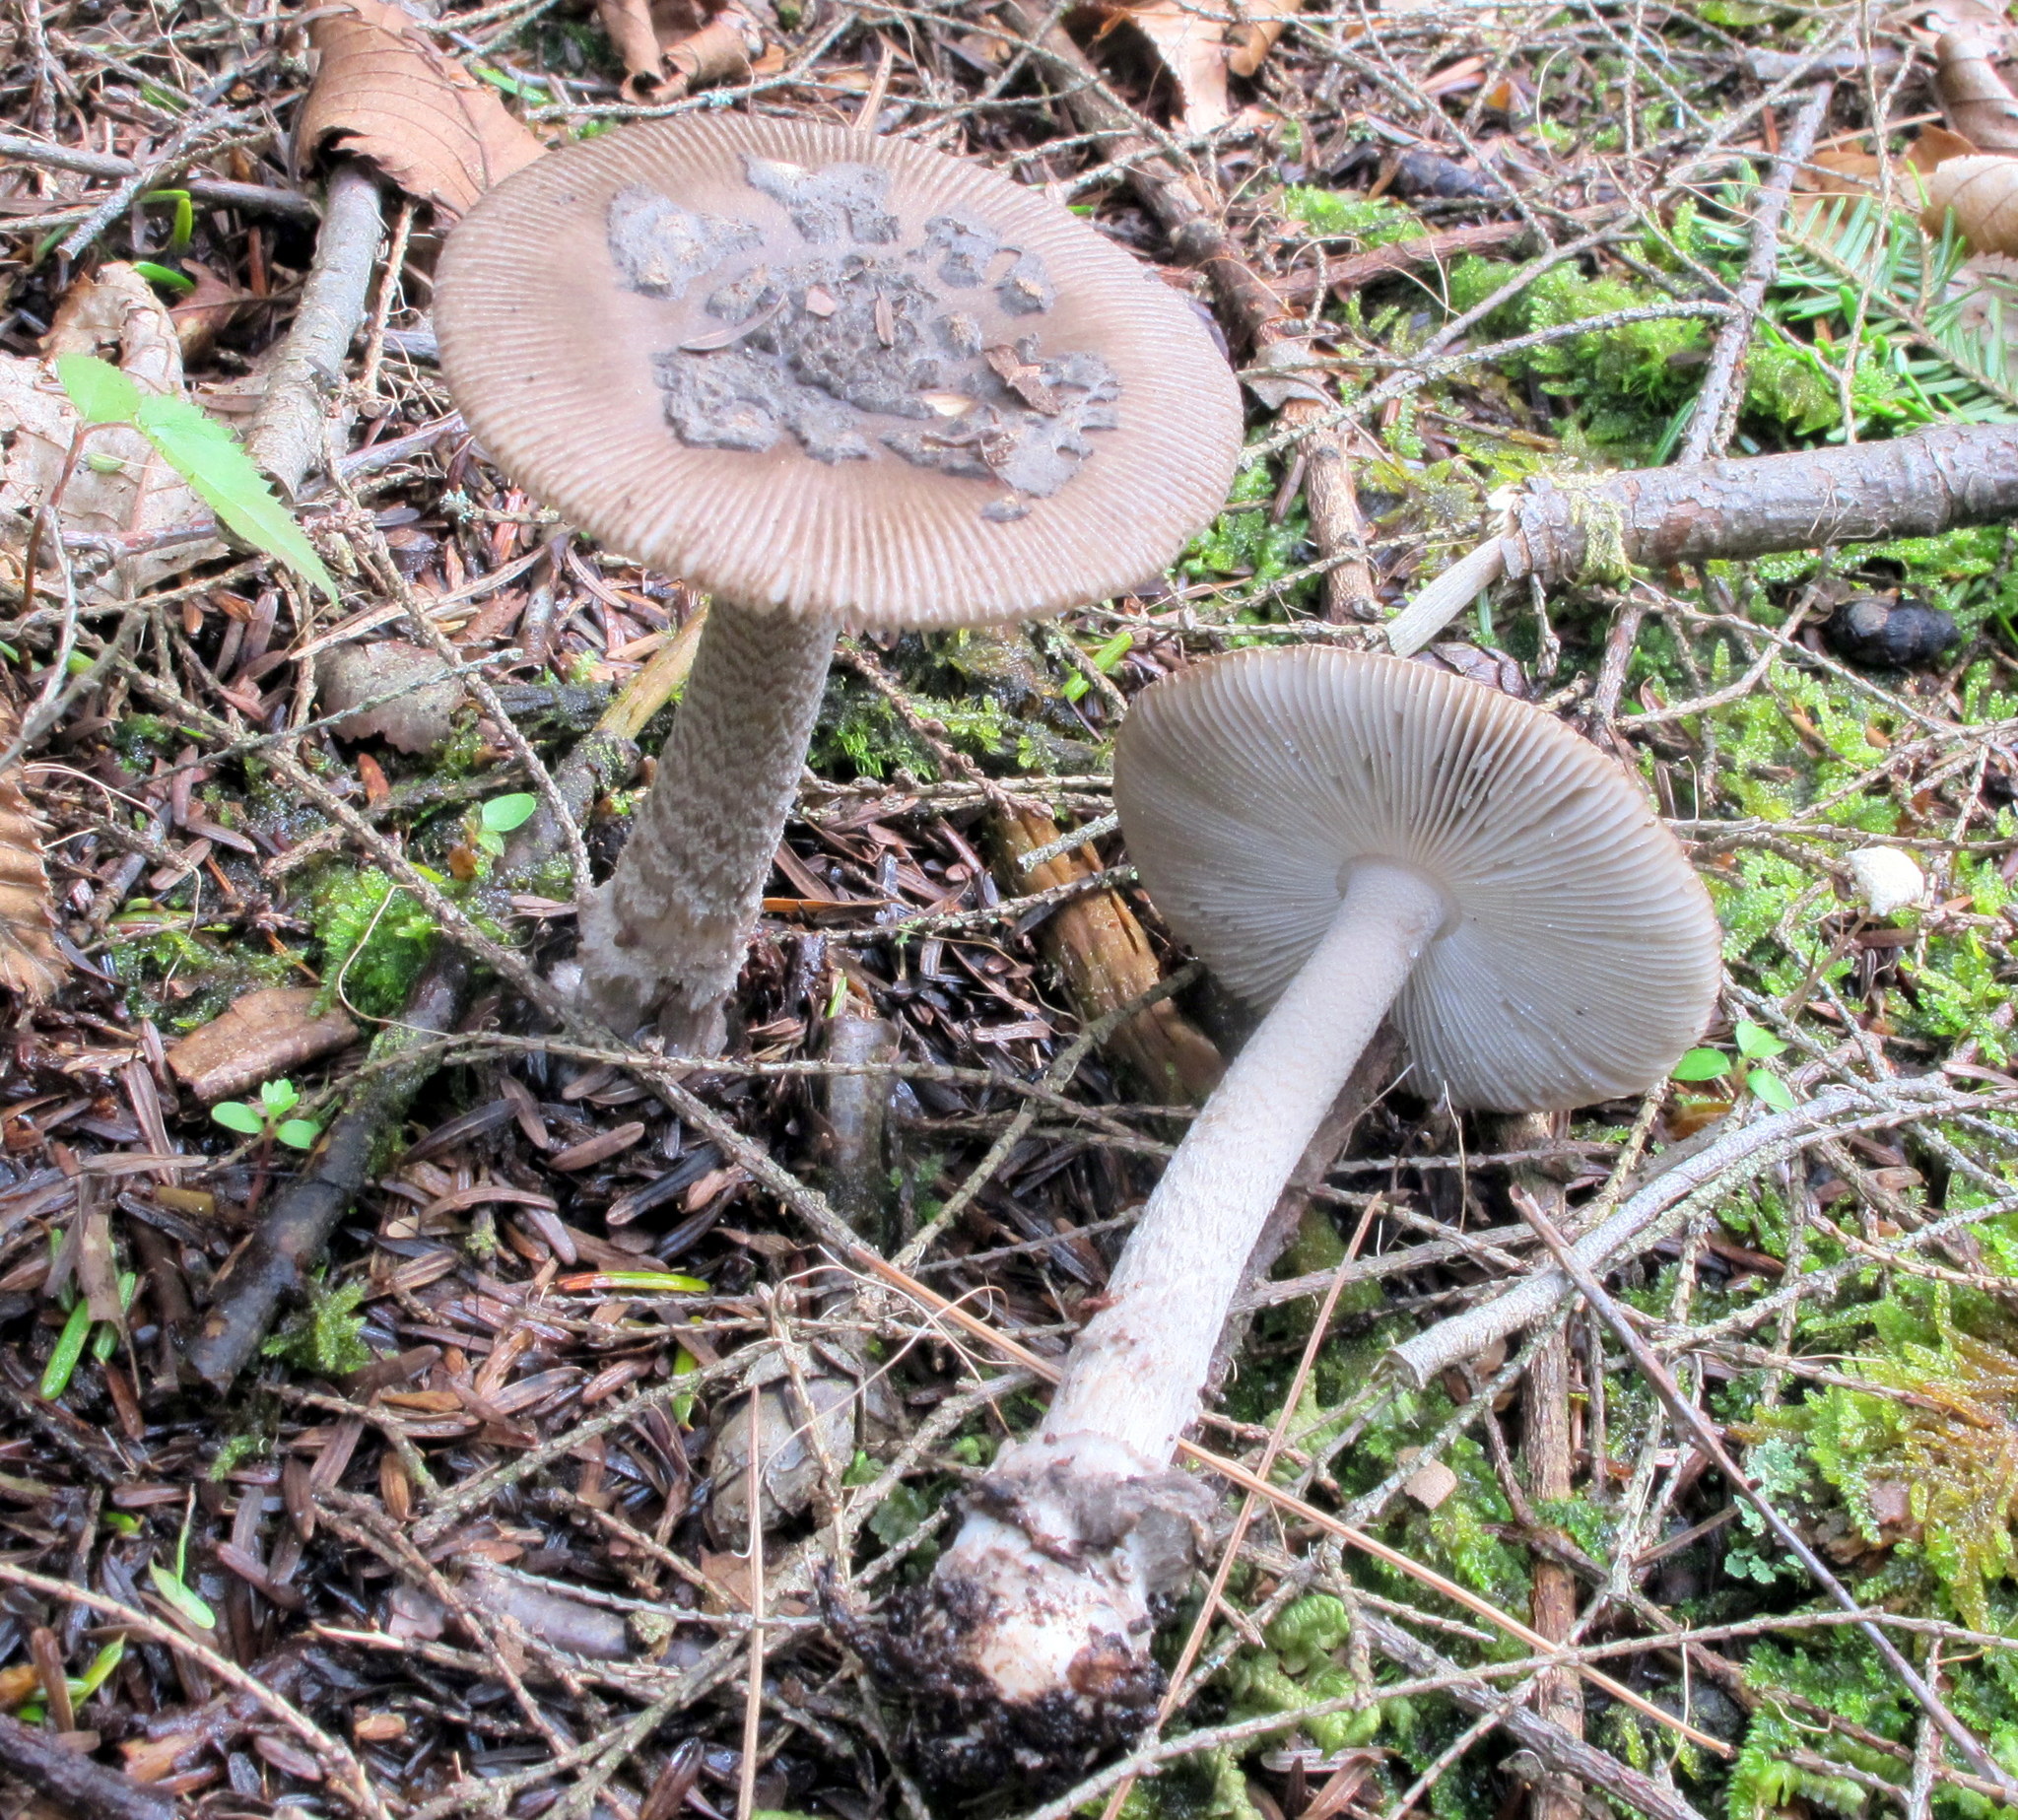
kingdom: Fungi
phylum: Basidiomycota
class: Agaricomycetes
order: Agaricales
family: Amanitaceae
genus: Amanita
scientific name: Amanita rhacopus
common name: Shaggy legged ringless amanita
